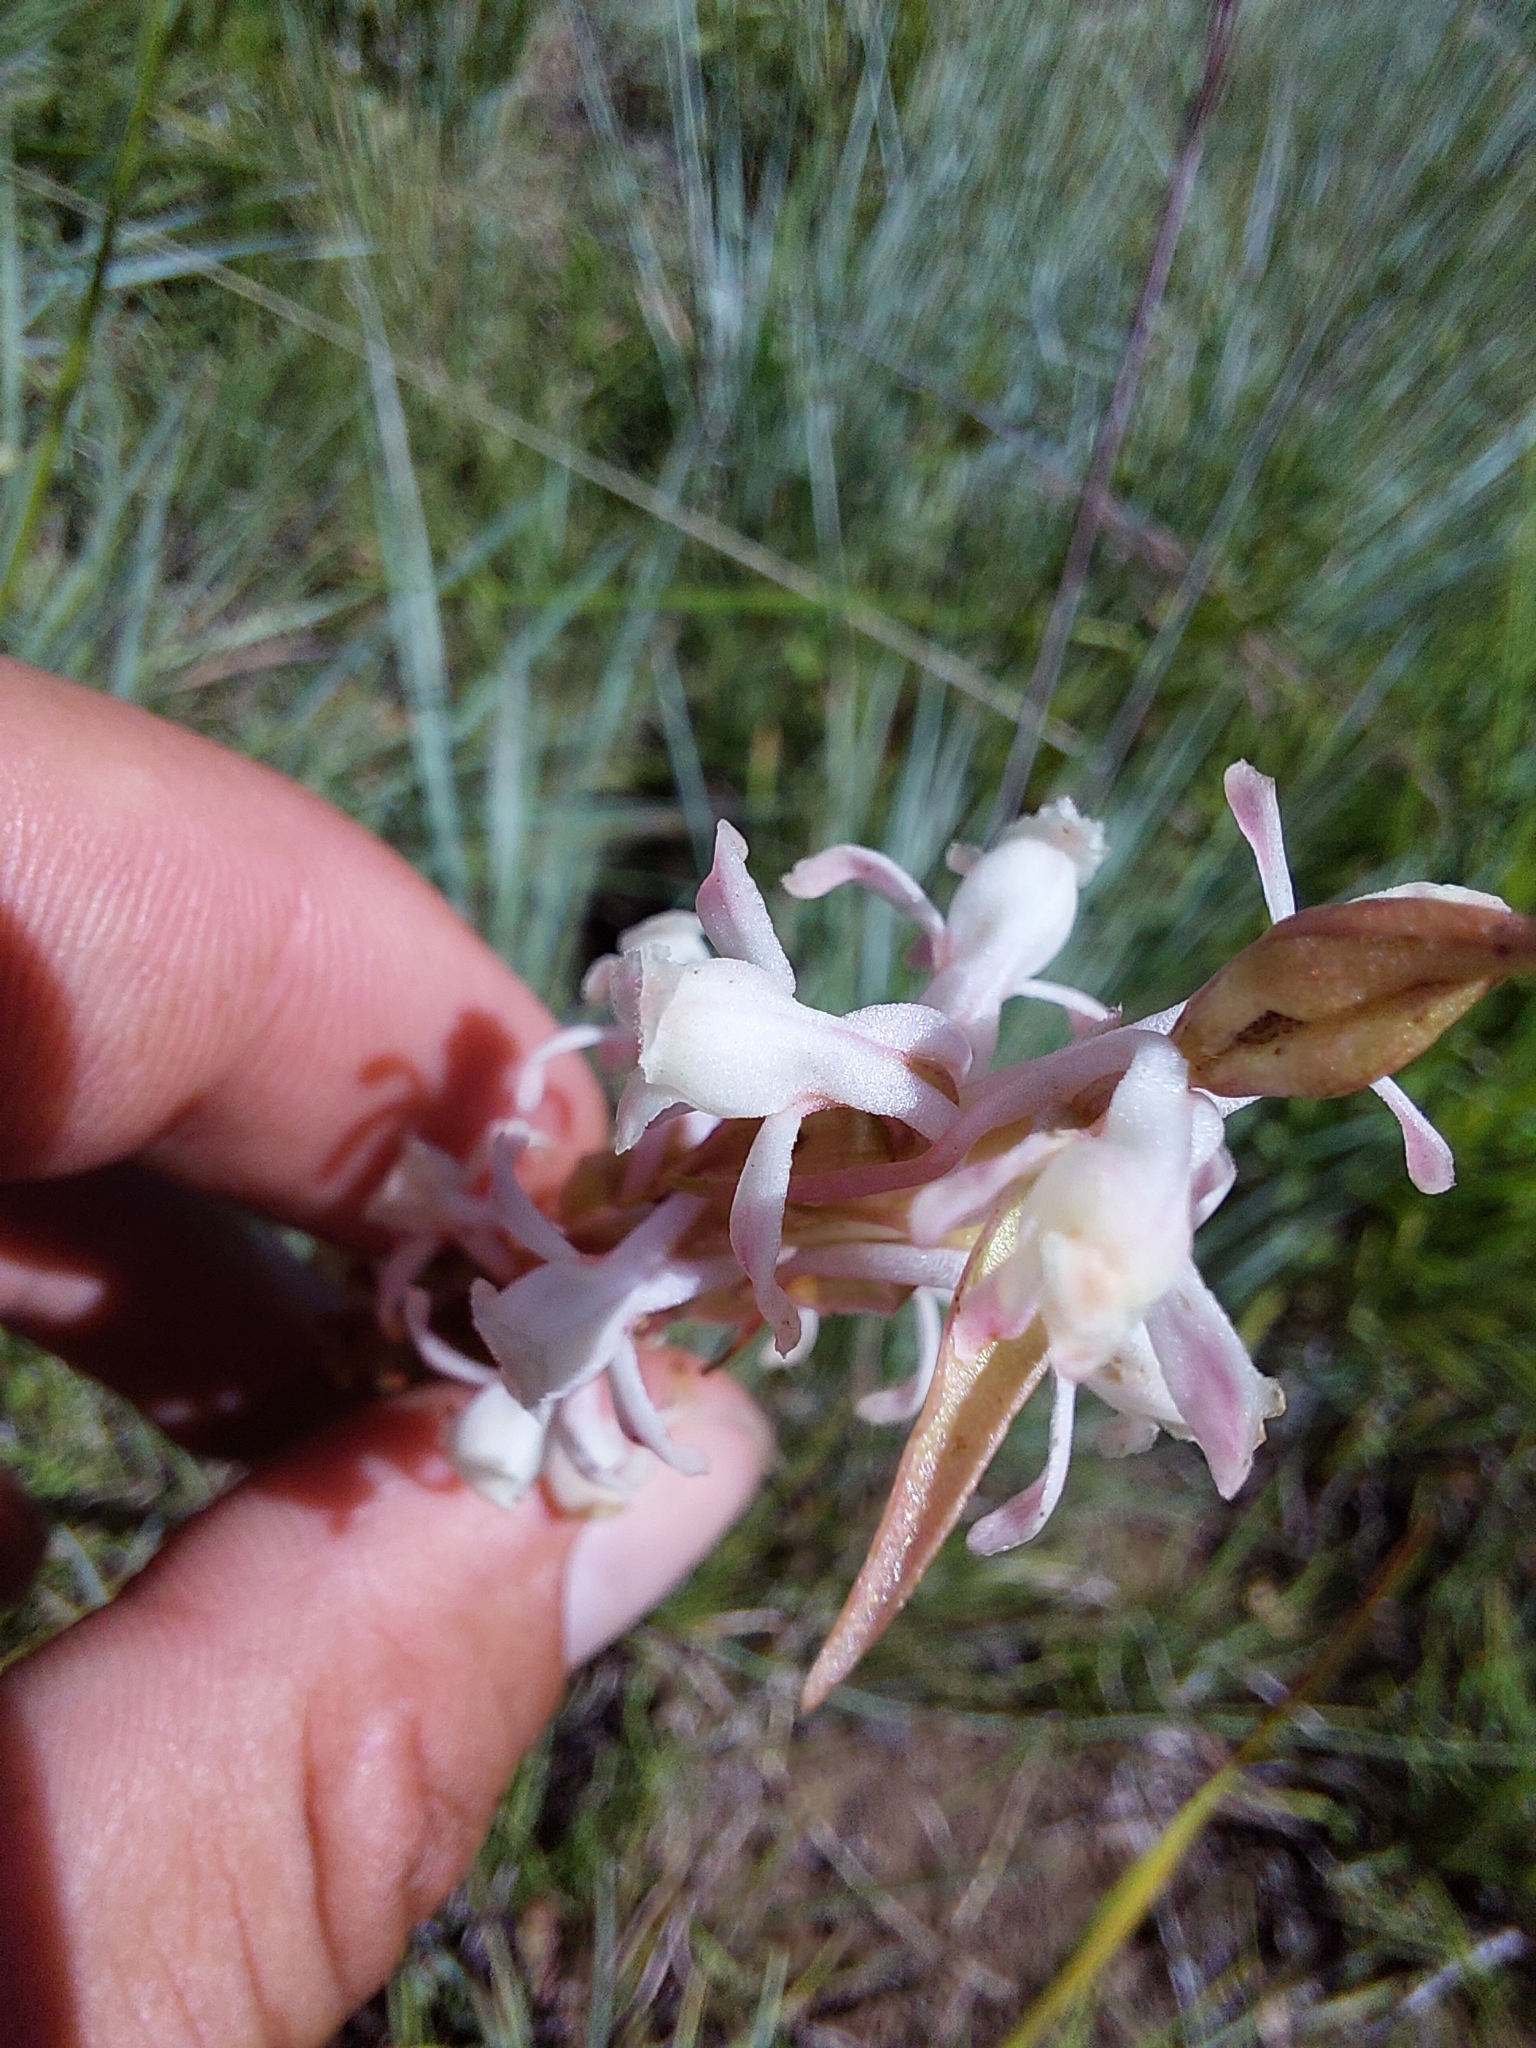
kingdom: Plantae
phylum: Tracheophyta
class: Liliopsida
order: Asparagales
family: Orchidaceae
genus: Satyrium
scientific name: Satyrium longicauda
